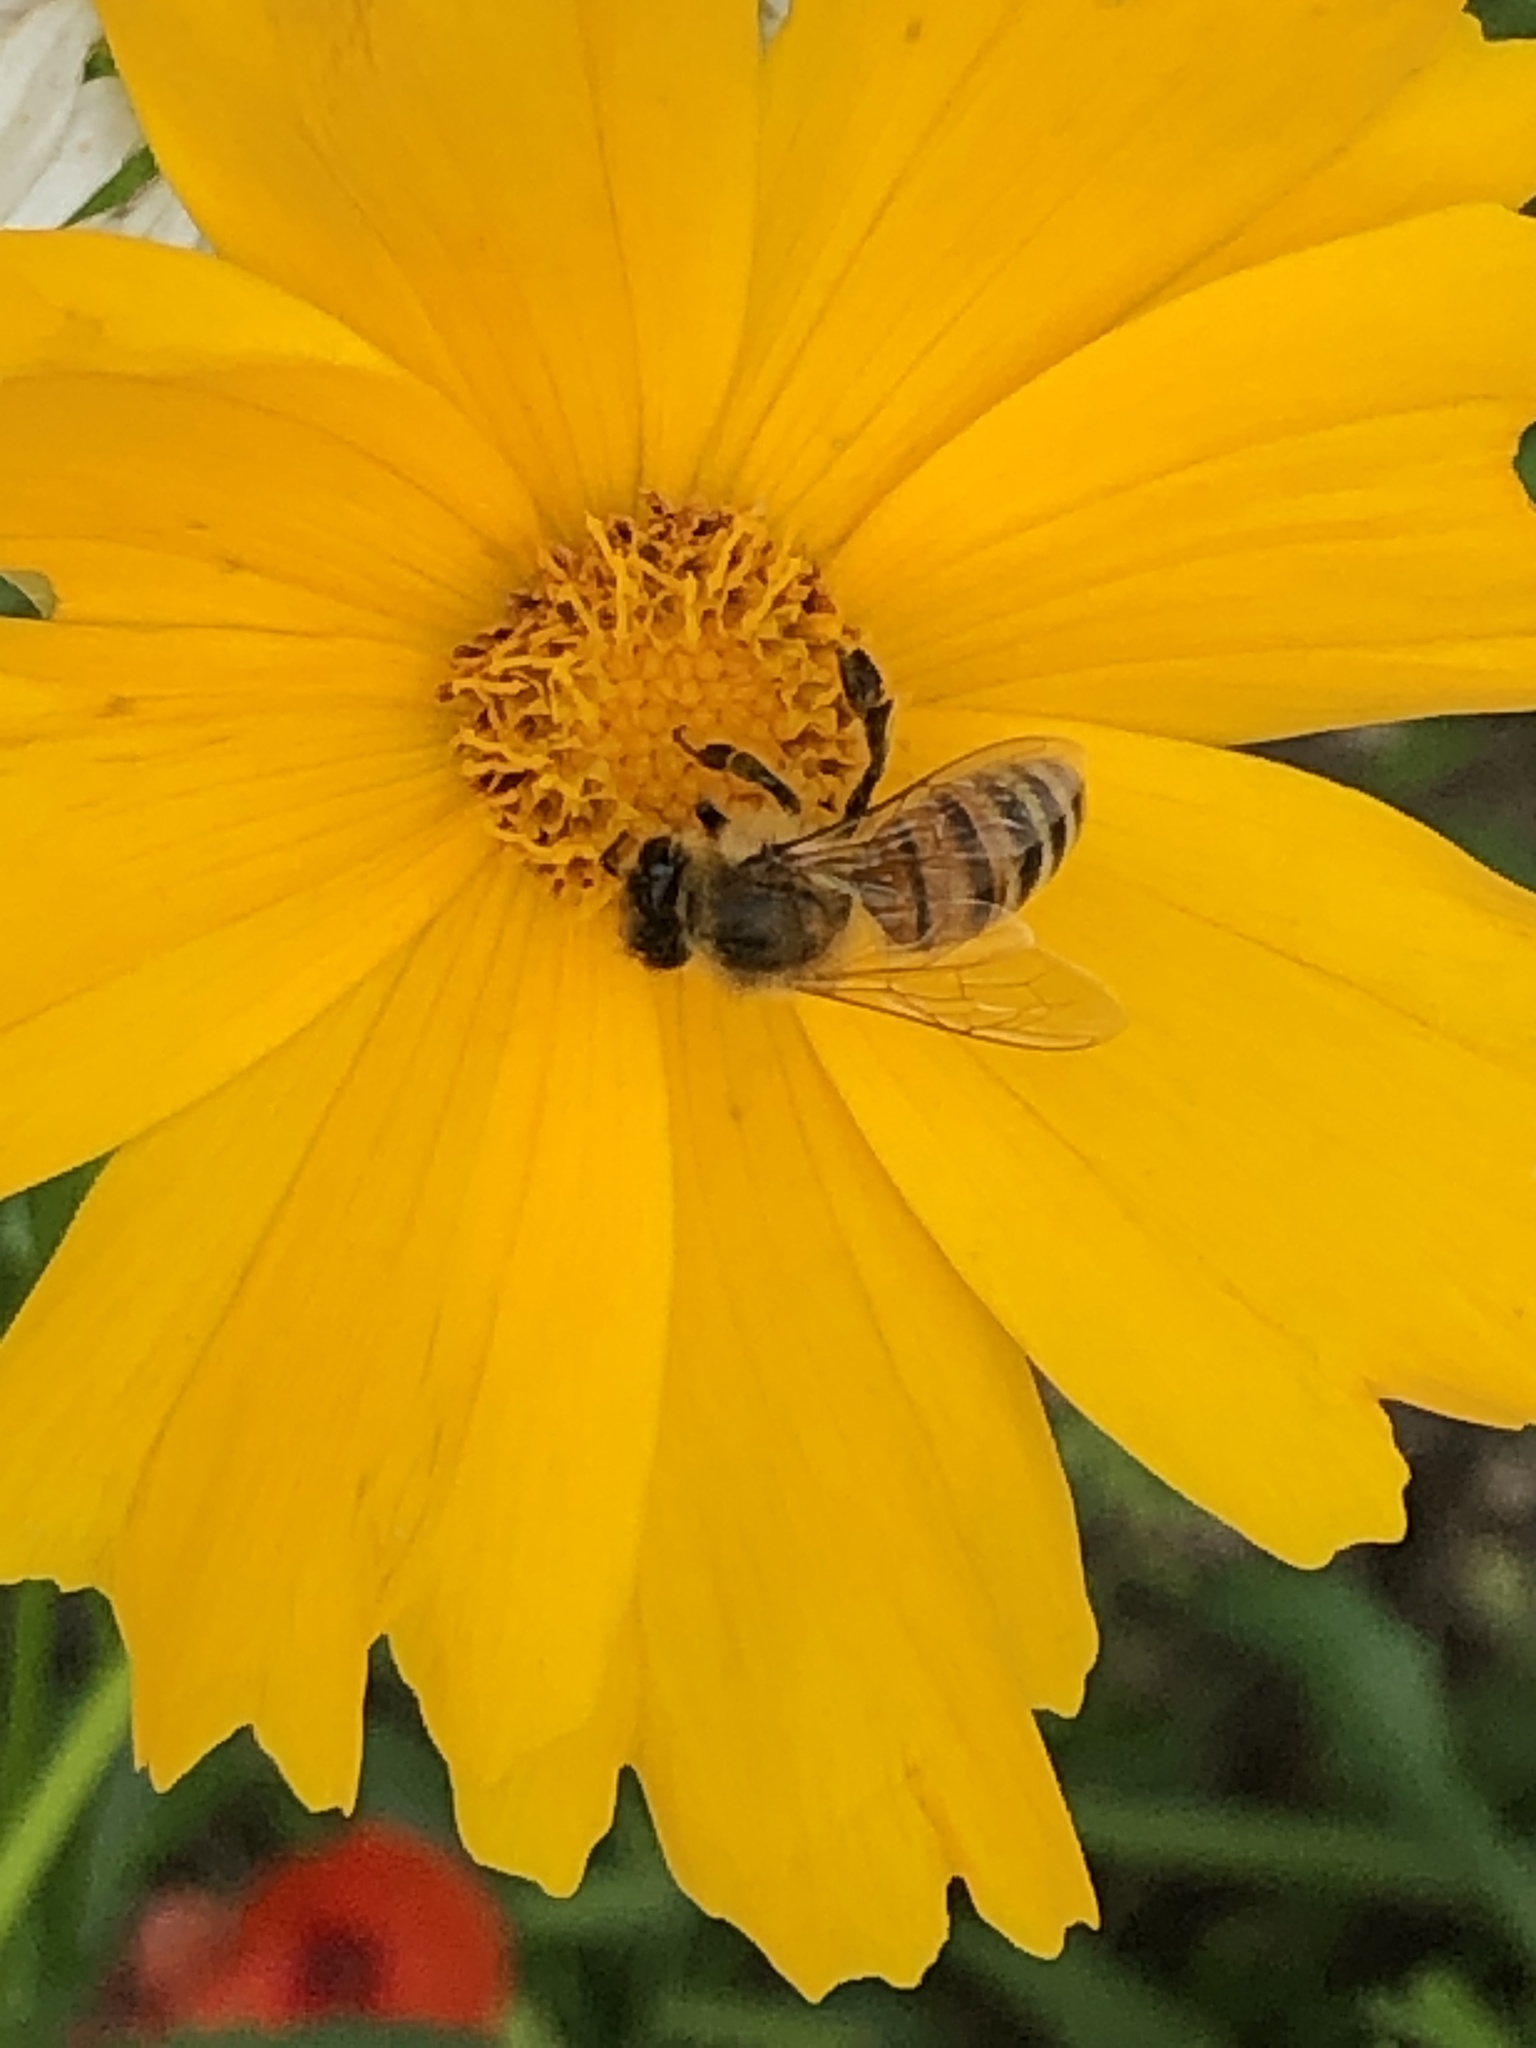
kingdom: Animalia
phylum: Arthropoda
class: Insecta
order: Hymenoptera
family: Apidae
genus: Apis
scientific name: Apis mellifera
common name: Honey bee
